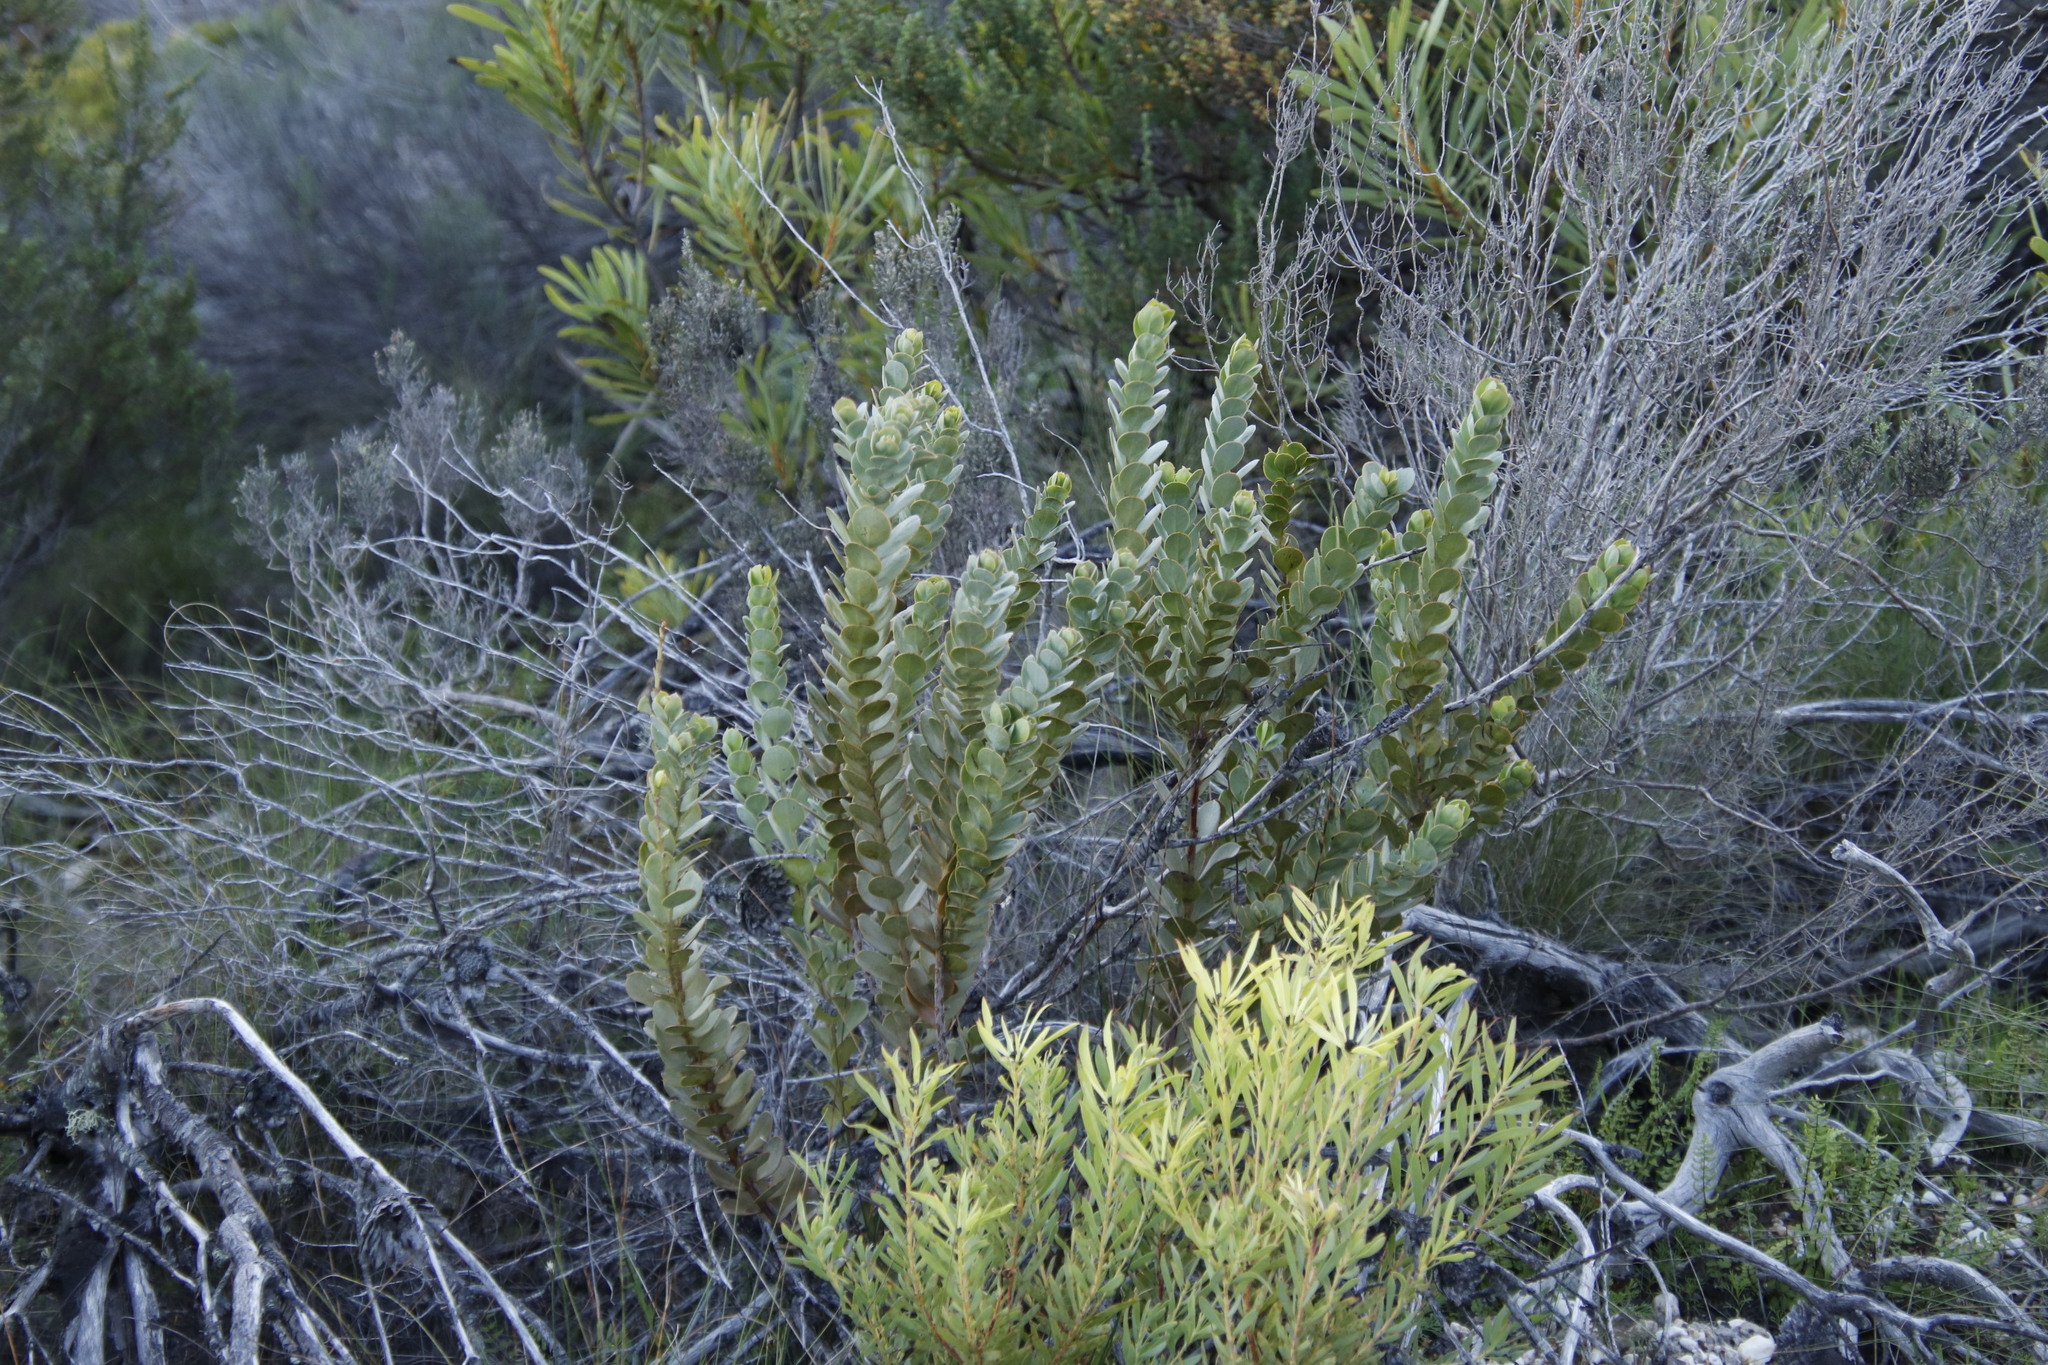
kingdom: Plantae
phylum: Tracheophyta
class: Magnoliopsida
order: Santalales
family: Santalaceae
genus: Osyris
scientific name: Osyris compressa
